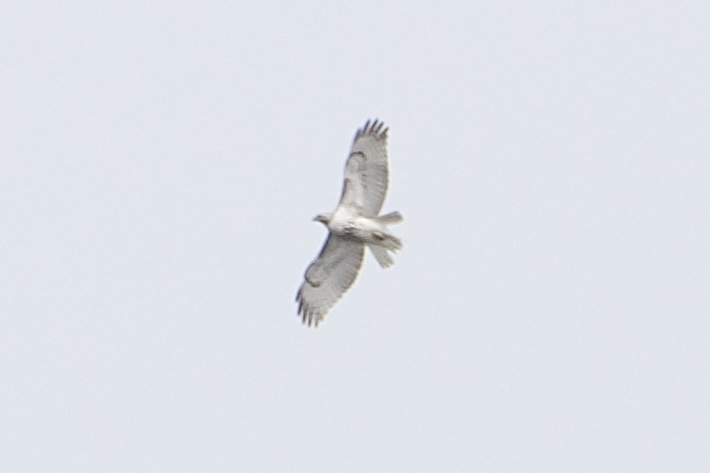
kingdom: Animalia
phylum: Chordata
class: Aves
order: Accipitriformes
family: Accipitridae
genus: Buteo
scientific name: Buteo jamaicensis
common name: Red-tailed hawk
